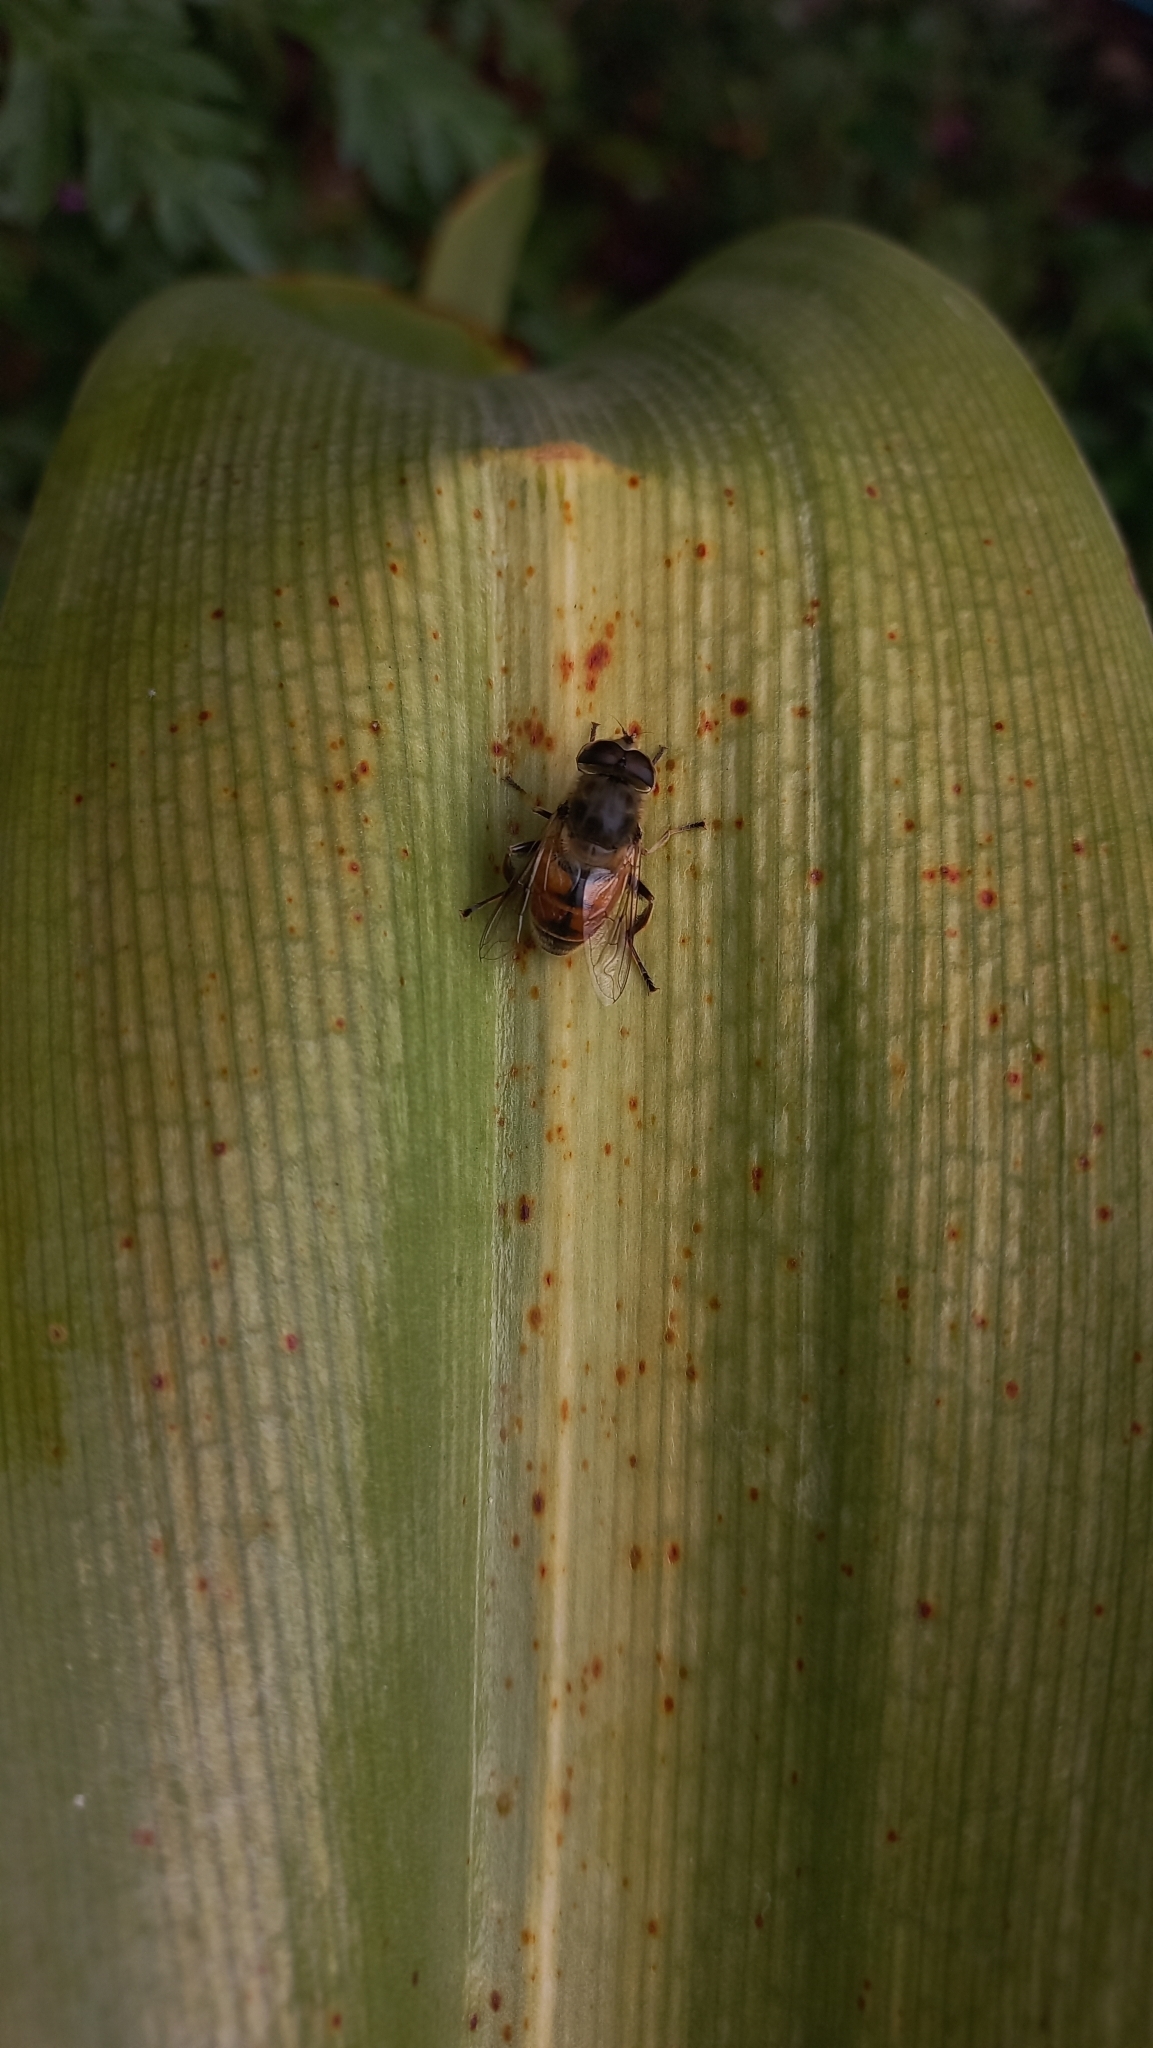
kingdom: Animalia
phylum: Arthropoda
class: Insecta
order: Diptera
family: Syrphidae
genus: Eristalis
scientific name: Eristalis tenax
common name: Drone fly
